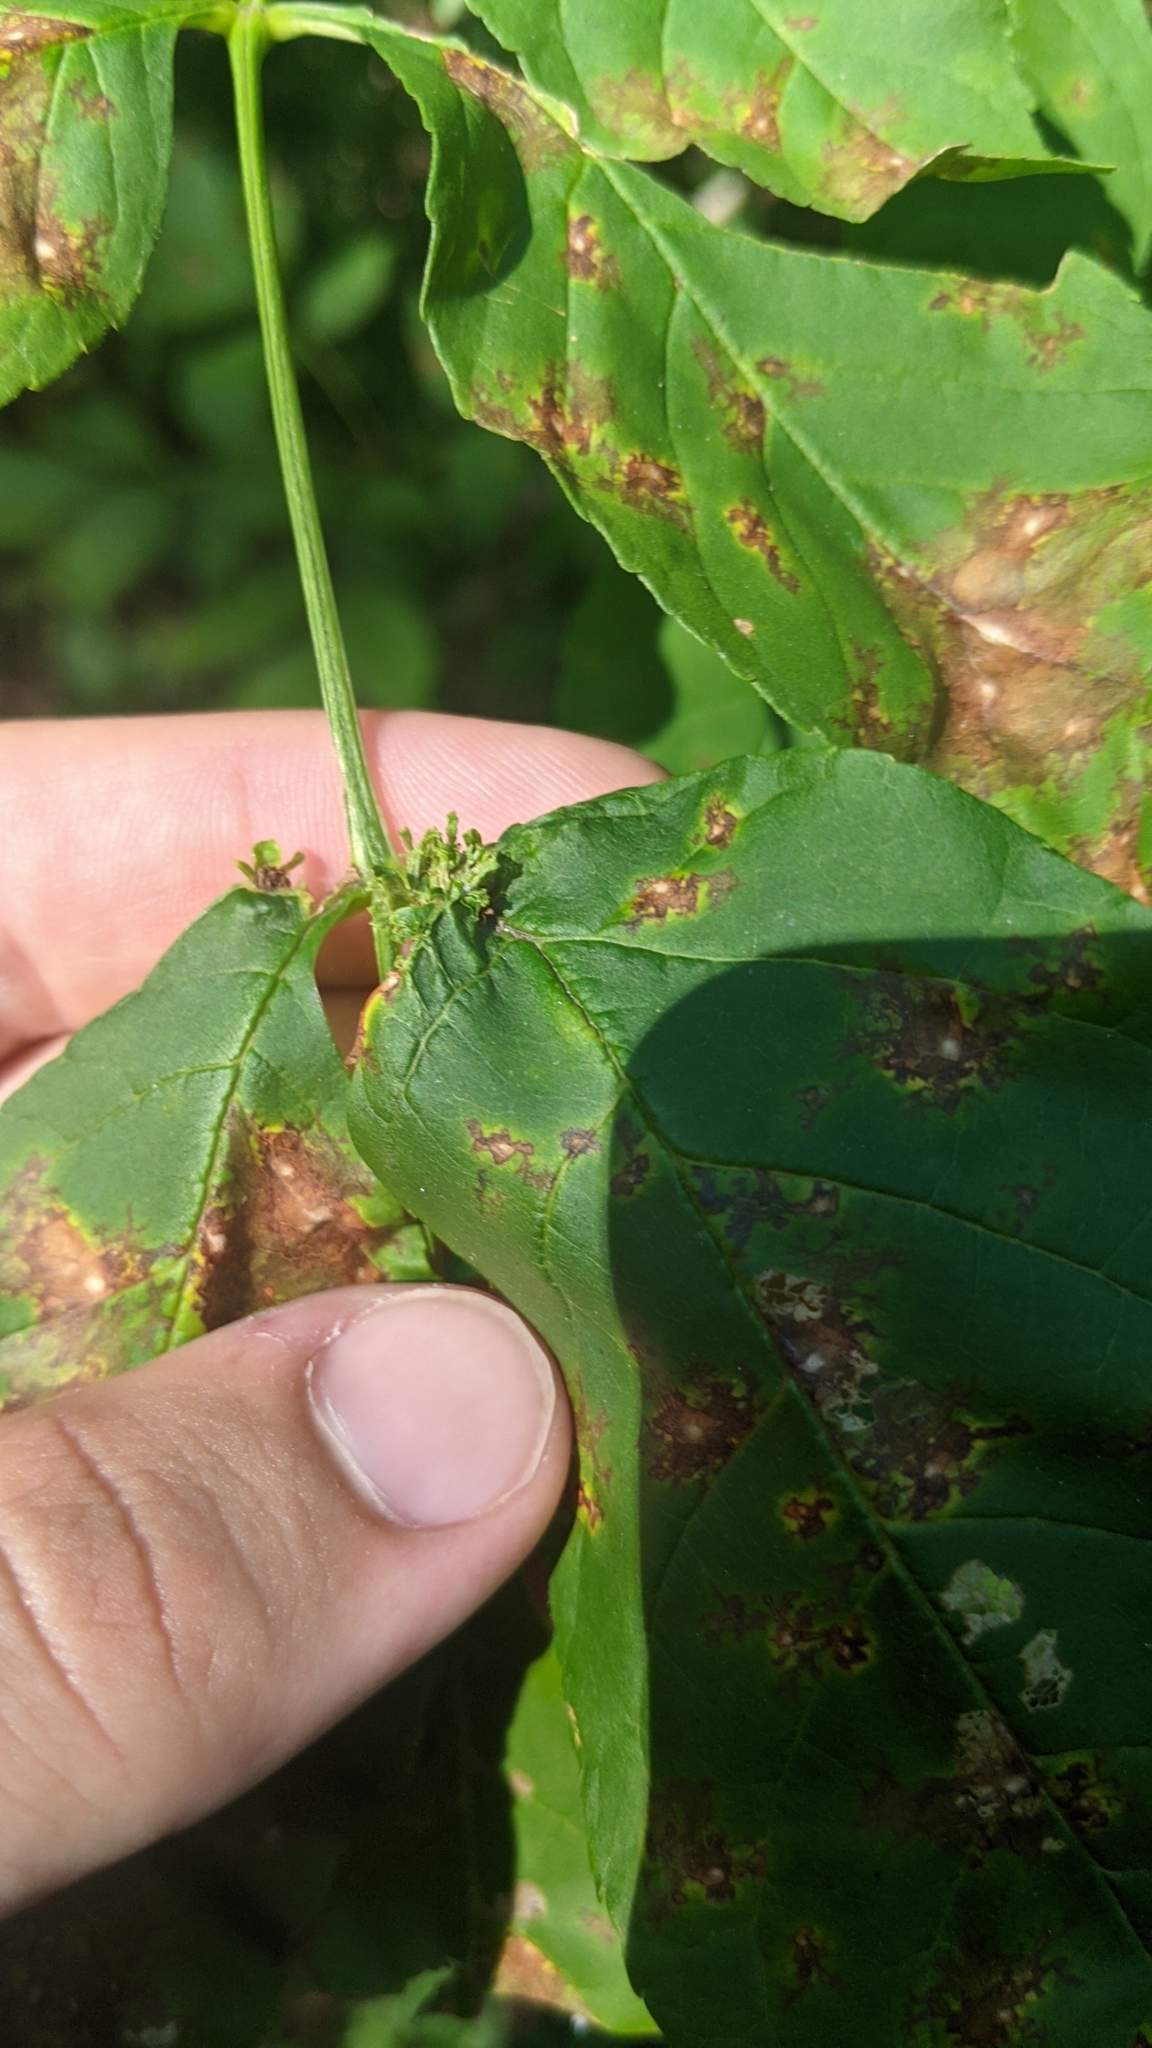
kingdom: Animalia
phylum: Arthropoda
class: Arachnida
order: Trombidiformes
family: Eriophyidae
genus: Aceria
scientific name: Aceria fraxiniflora
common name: Ash flower gall mite
